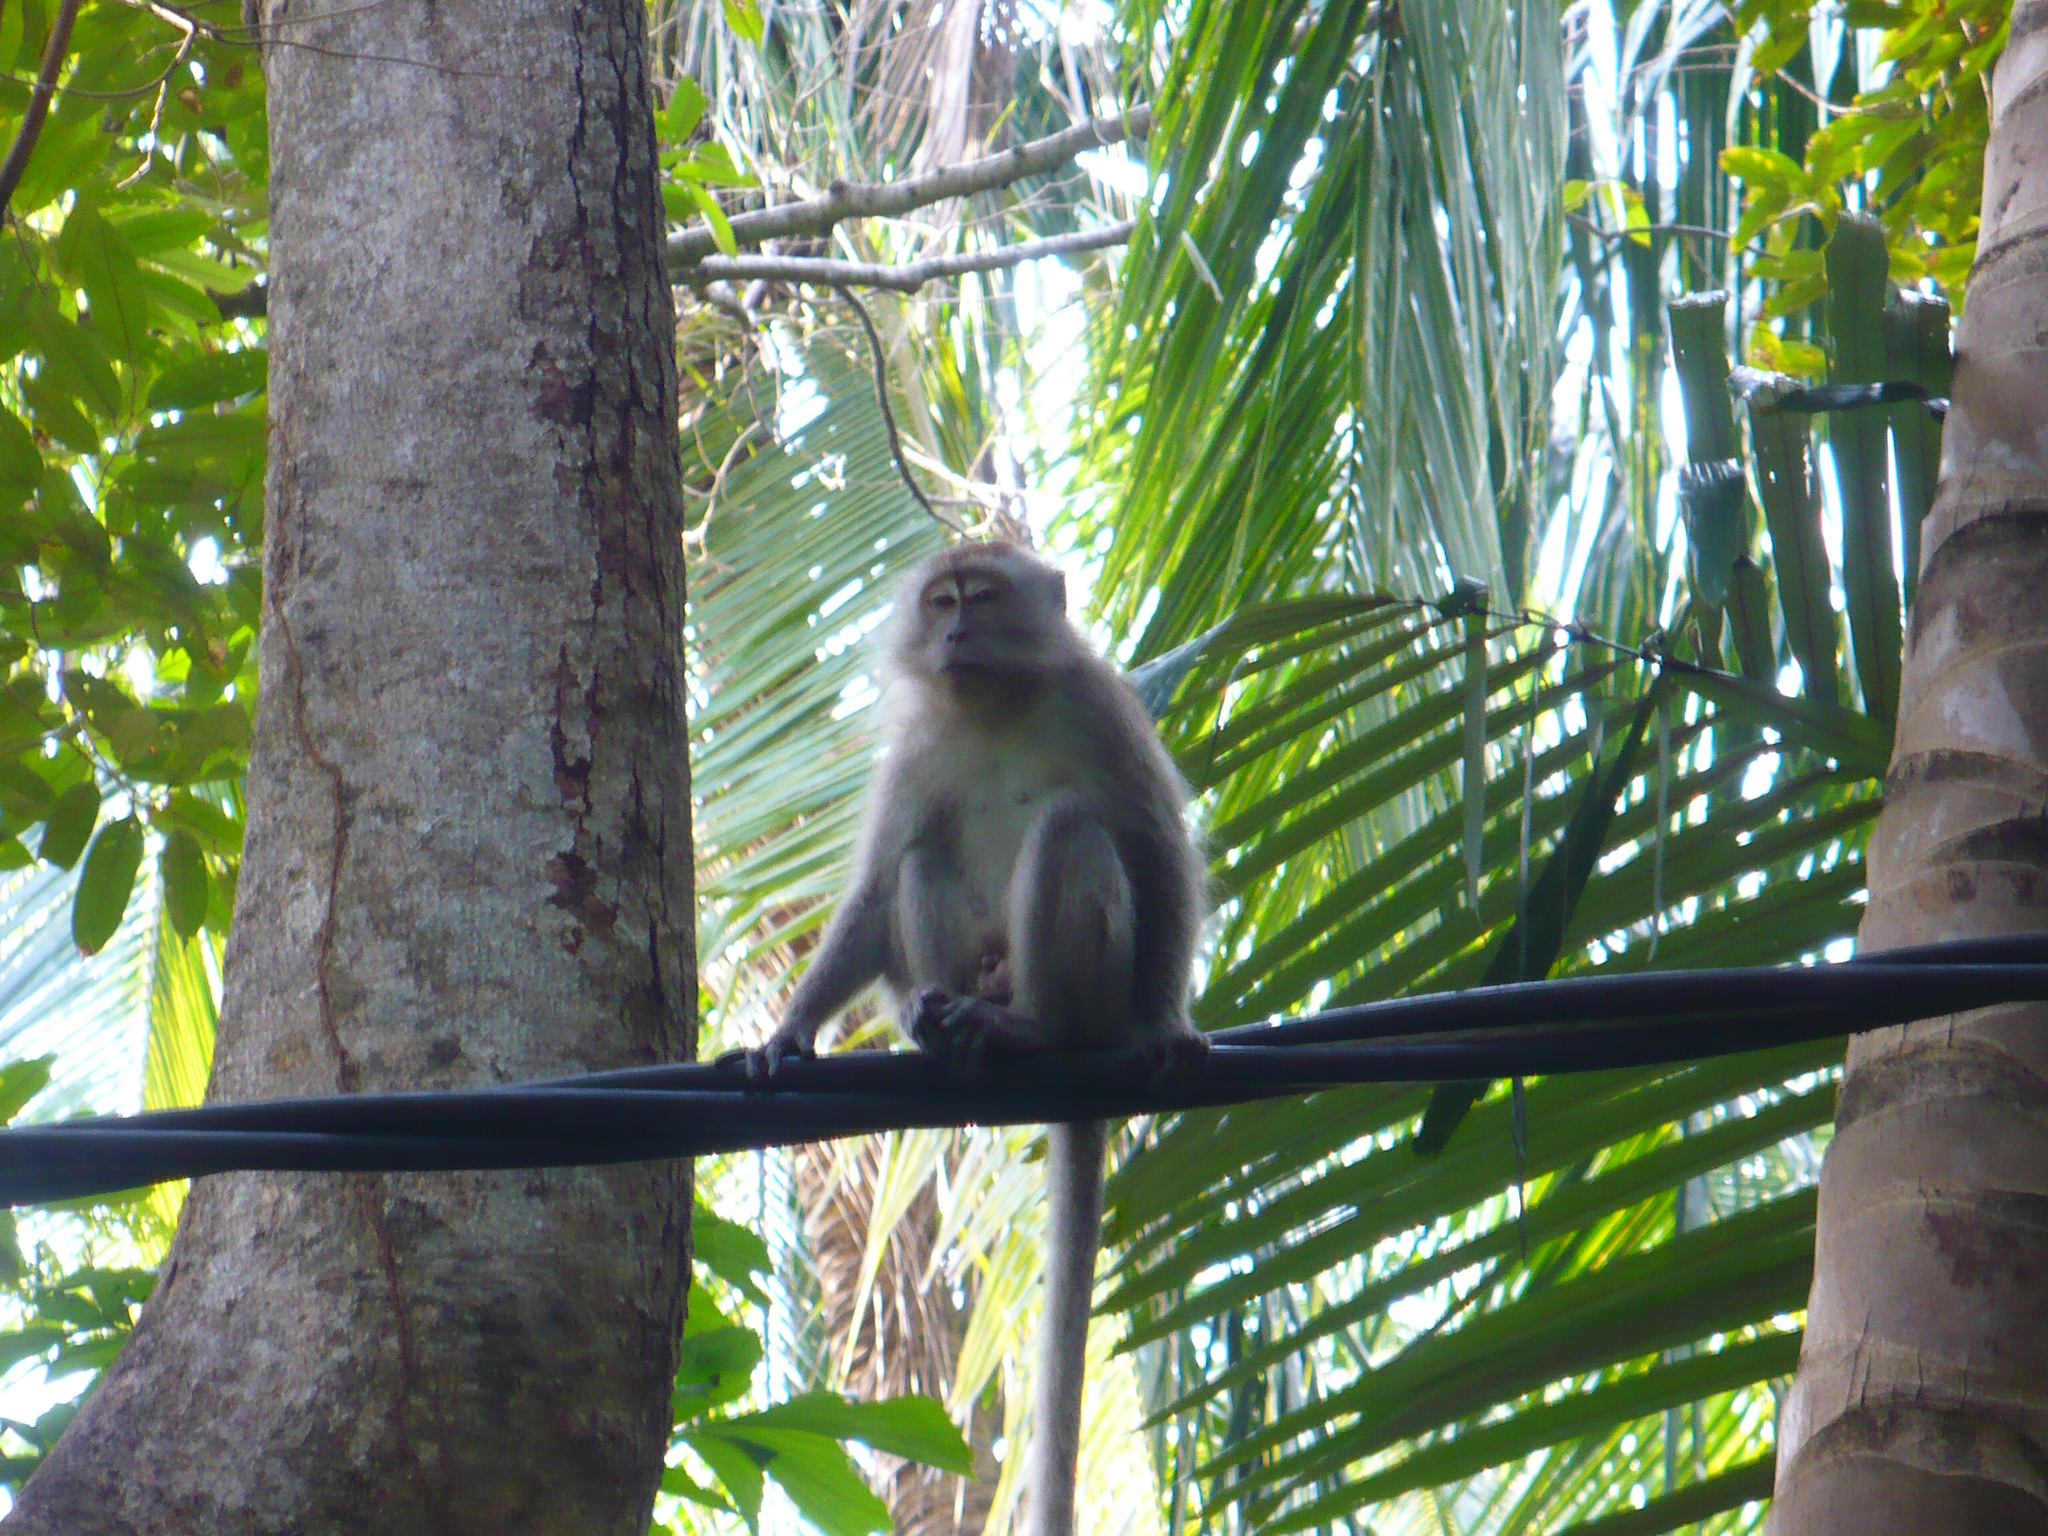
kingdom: Animalia
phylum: Chordata
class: Mammalia
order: Primates
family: Cercopithecidae
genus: Macaca
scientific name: Macaca fascicularis
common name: Crab-eating macaque
